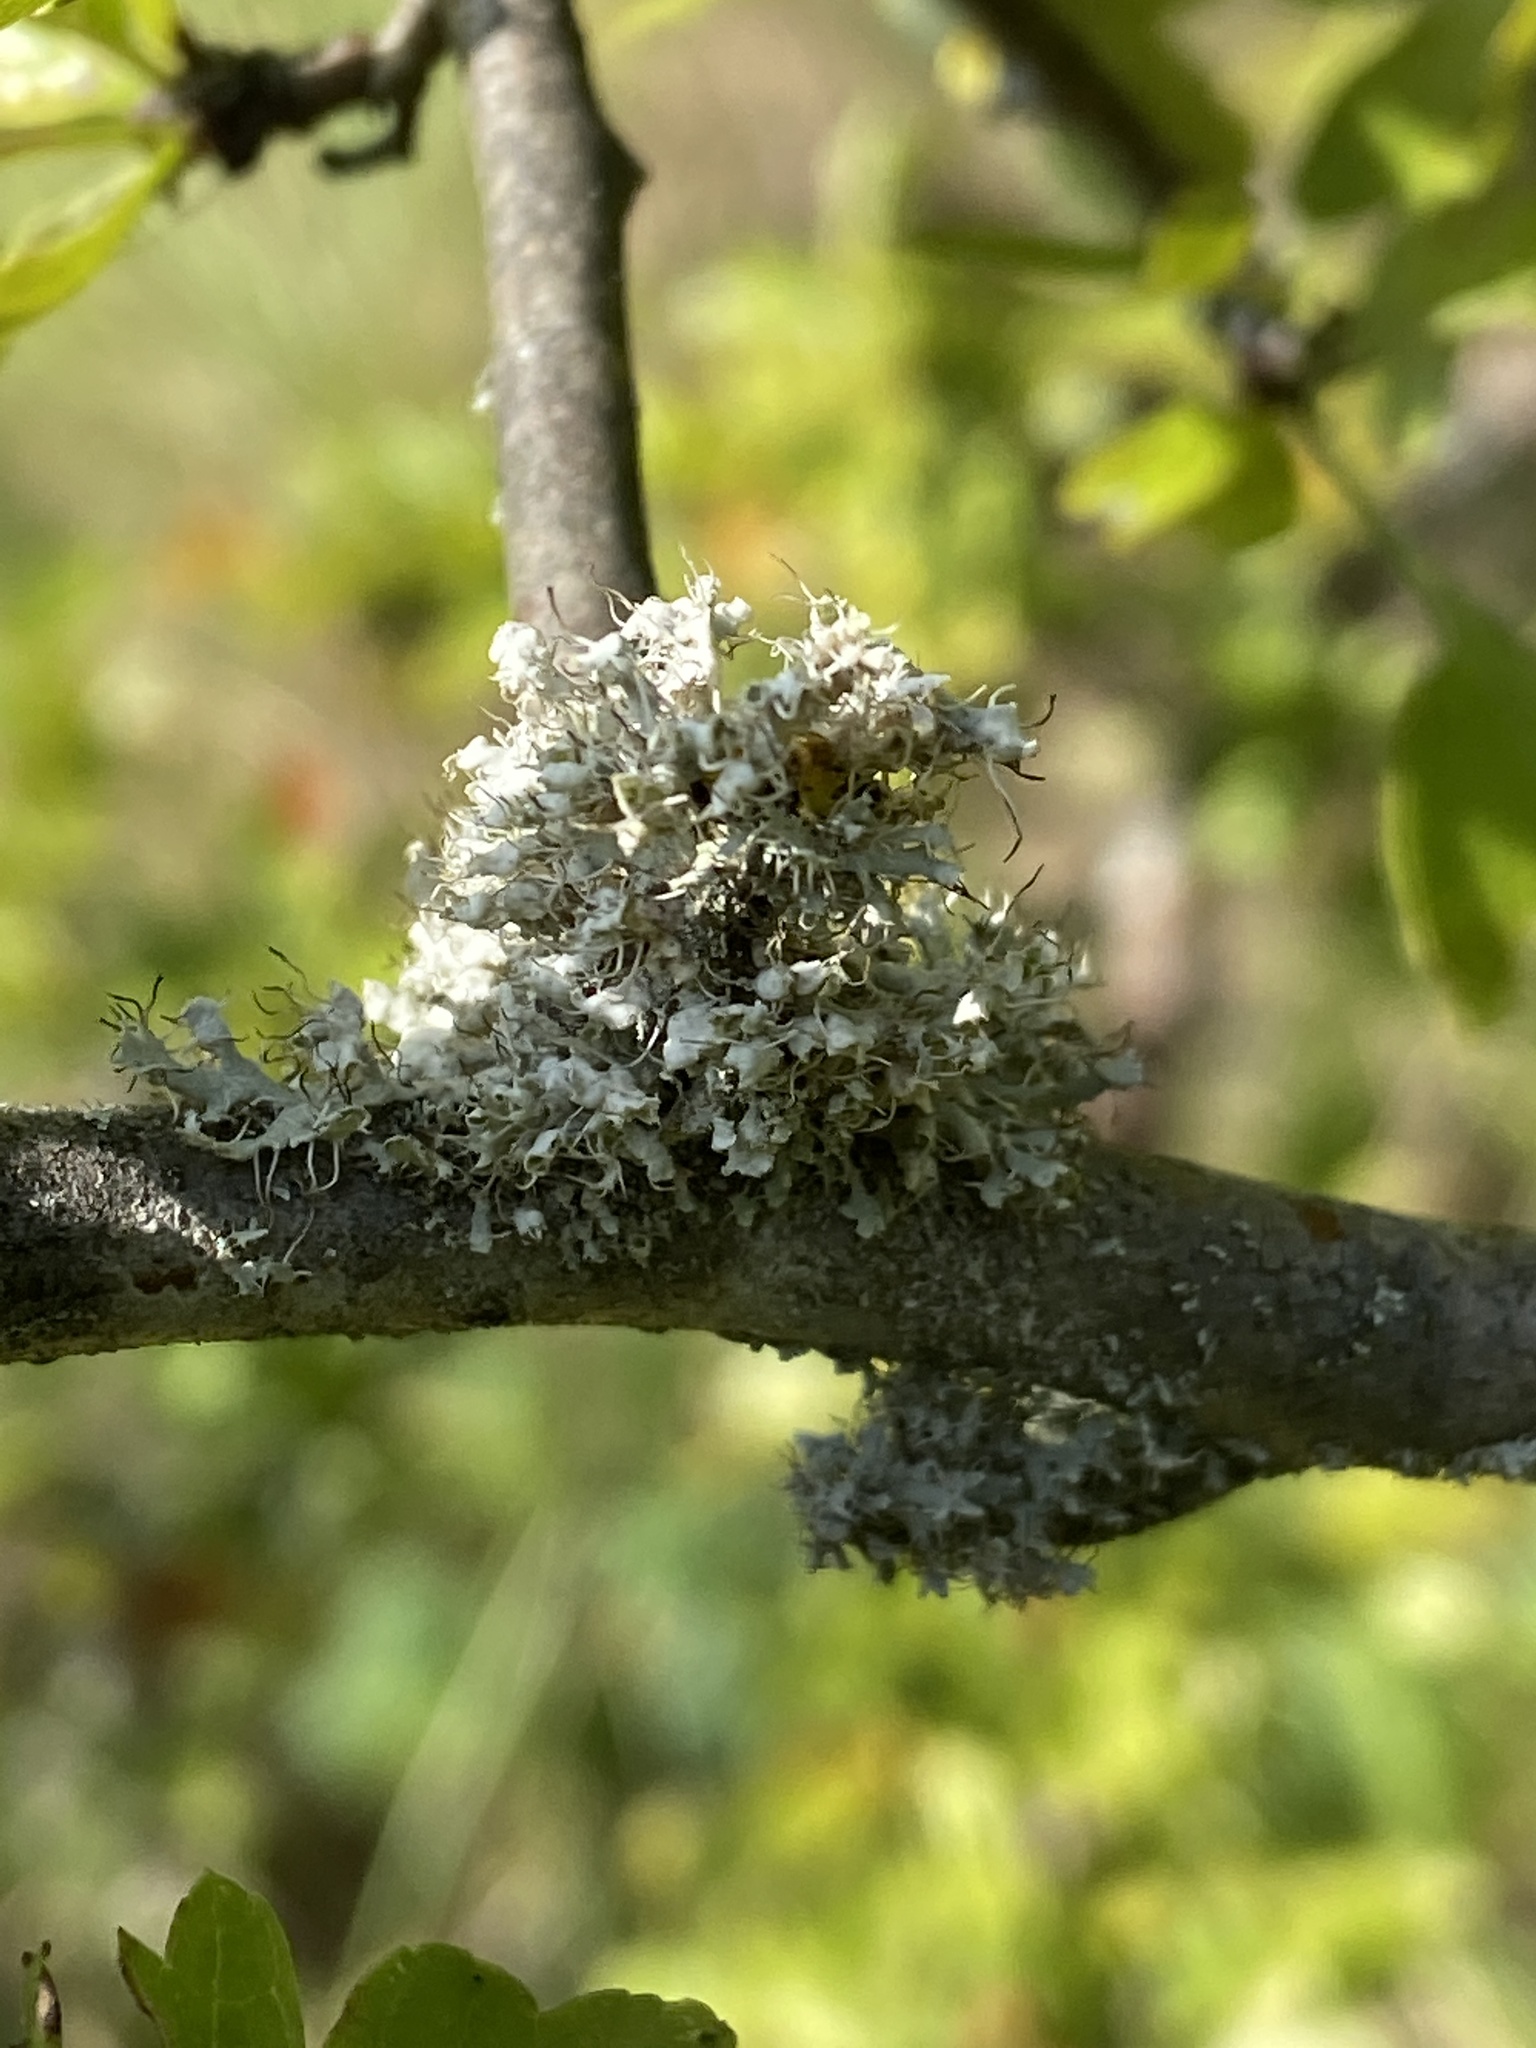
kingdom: Fungi
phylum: Ascomycota
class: Lecanoromycetes
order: Caliciales
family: Physciaceae
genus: Physcia
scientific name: Physcia adscendens
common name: Hooded rosette lichen
